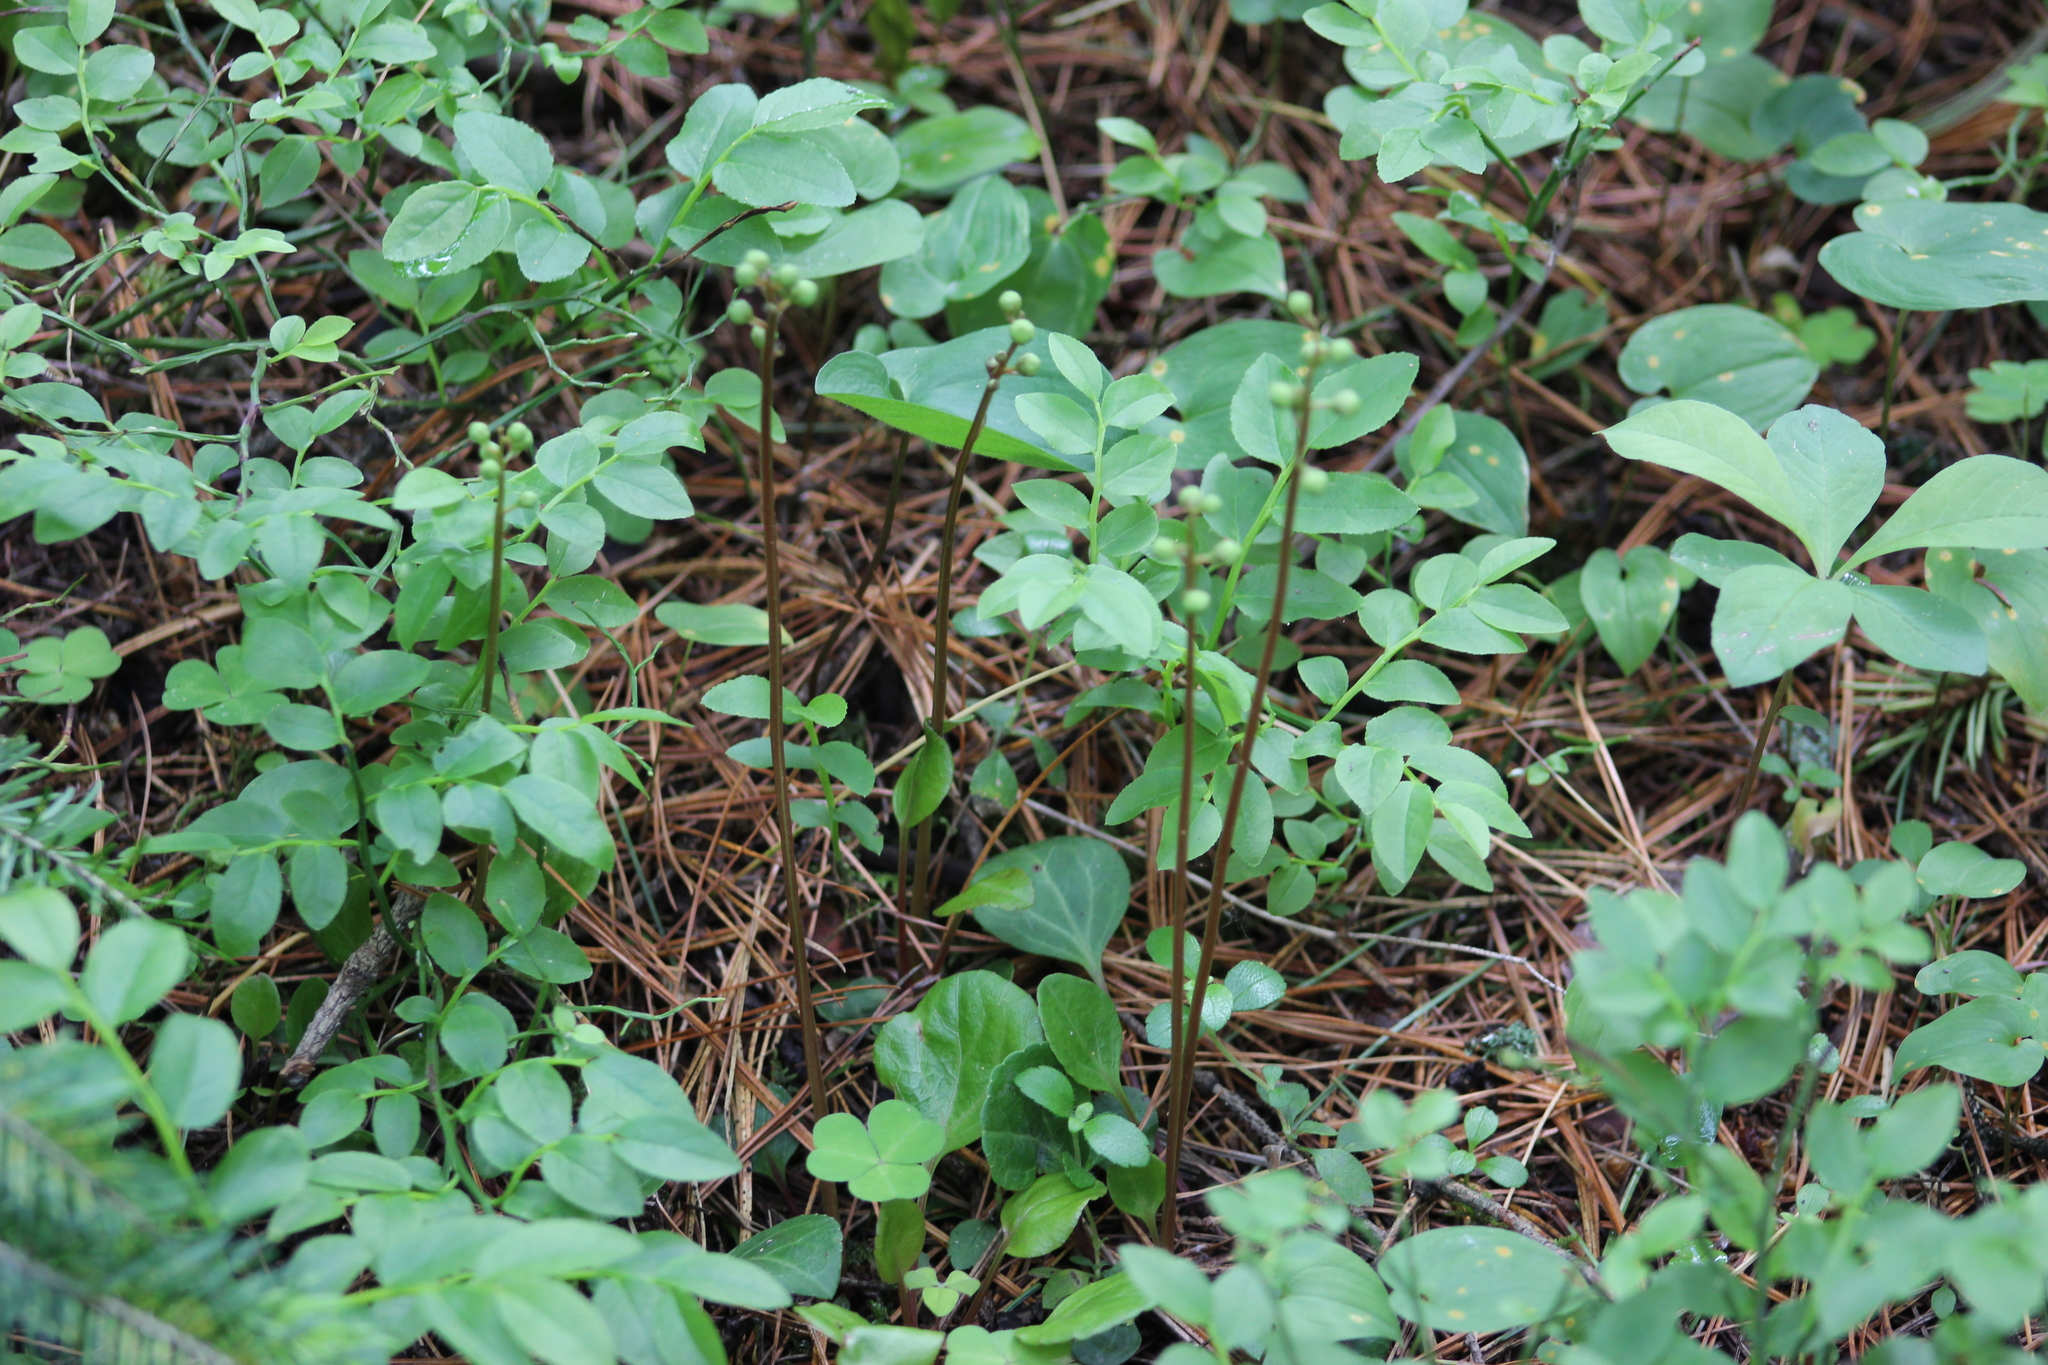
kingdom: Plantae
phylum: Tracheophyta
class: Magnoliopsida
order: Ericales
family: Ericaceae
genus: Pyrola
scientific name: Pyrola chlorantha
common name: Green wintergreen
